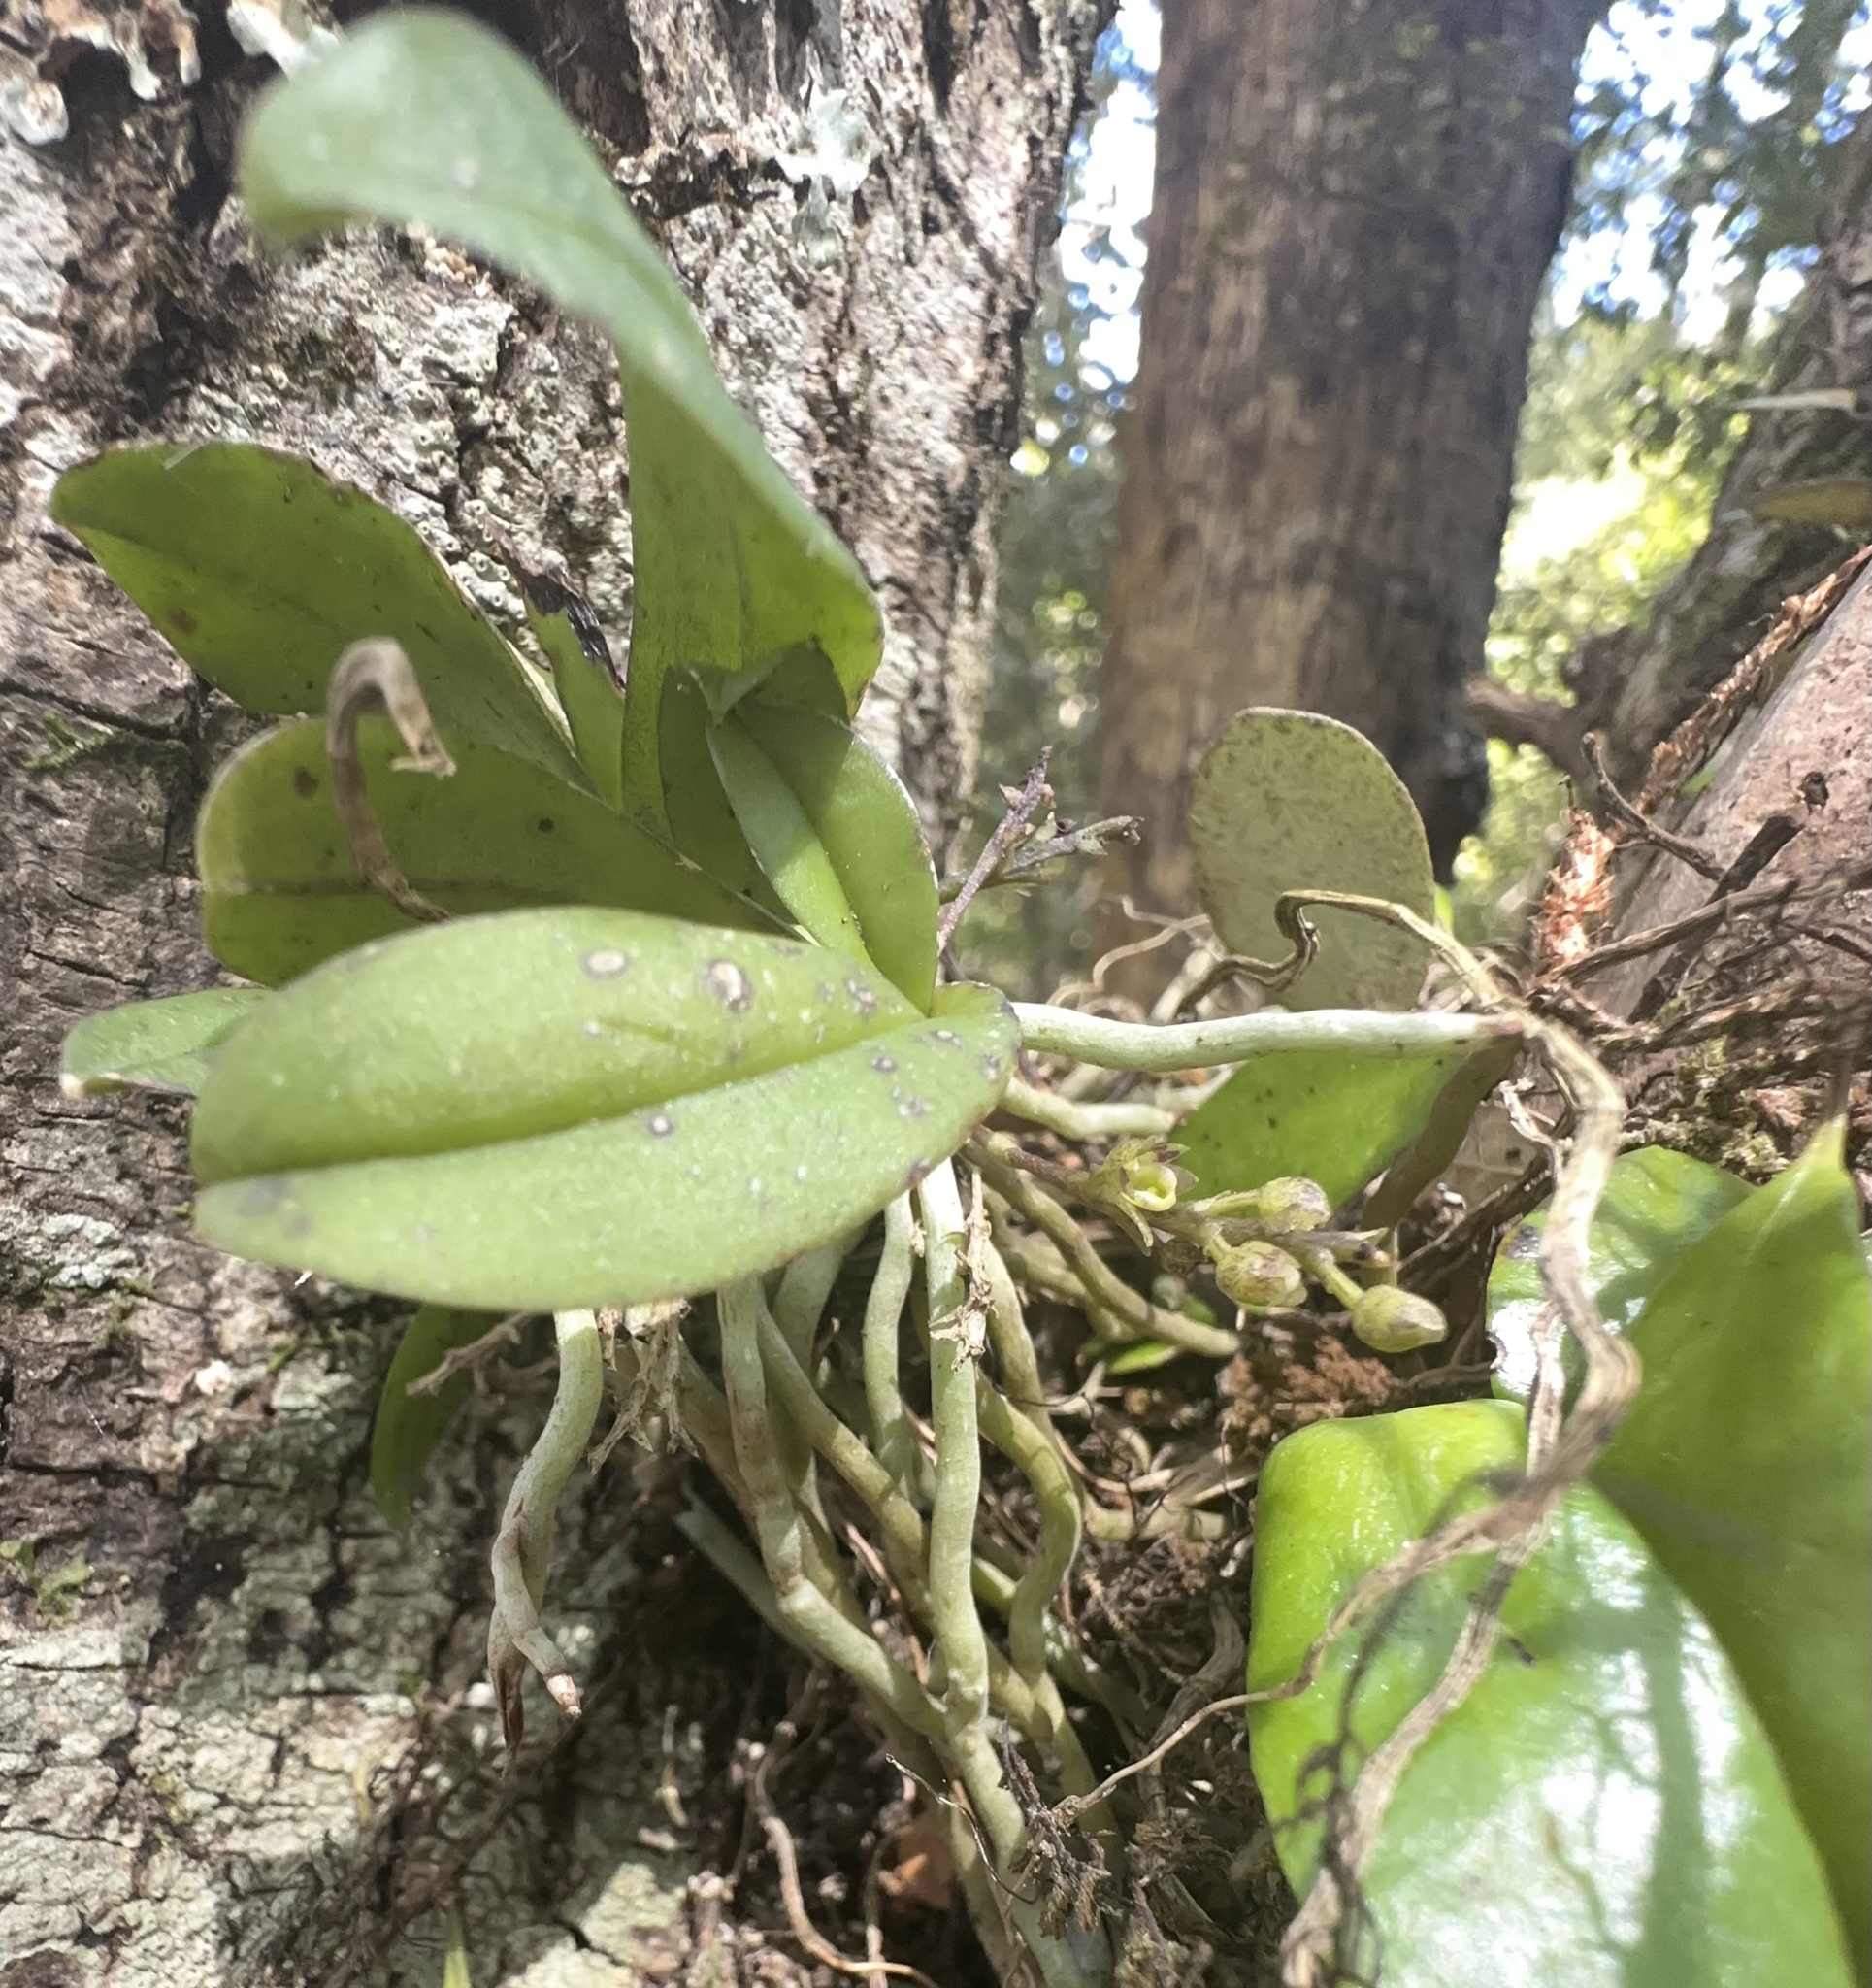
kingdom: Plantae
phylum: Tracheophyta
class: Liliopsida
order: Asparagales
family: Orchidaceae
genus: Drymoanthus
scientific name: Drymoanthus adversus
